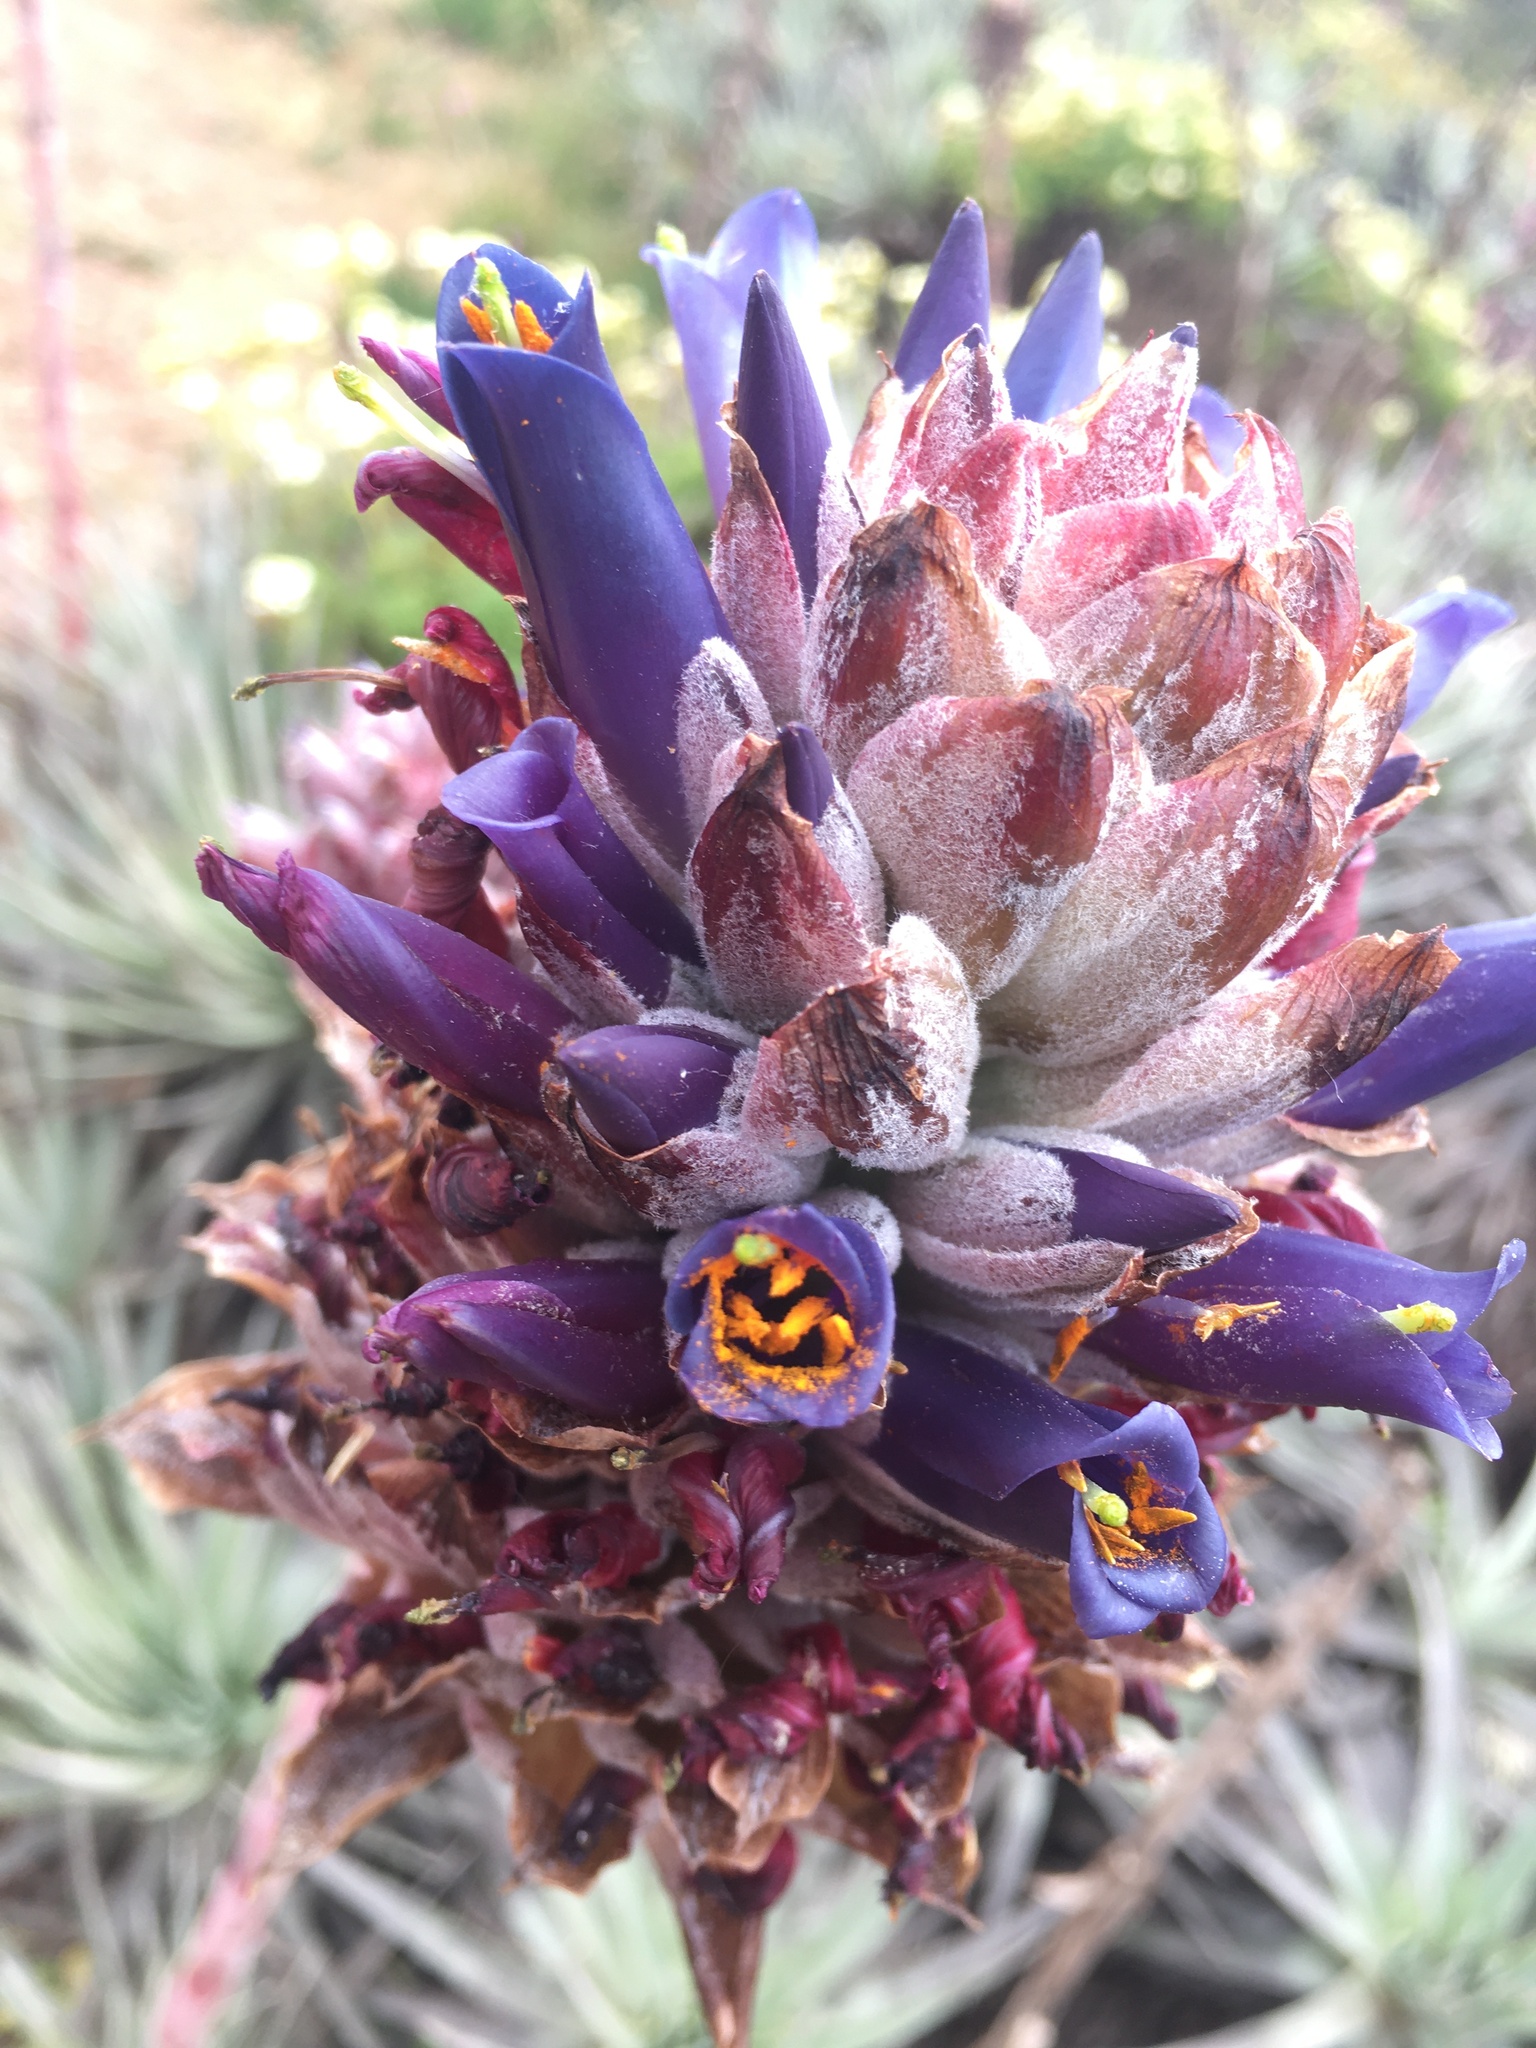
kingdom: Plantae
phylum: Tracheophyta
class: Liliopsida
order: Poales
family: Bromeliaceae
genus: Puya
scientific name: Puya venusta
